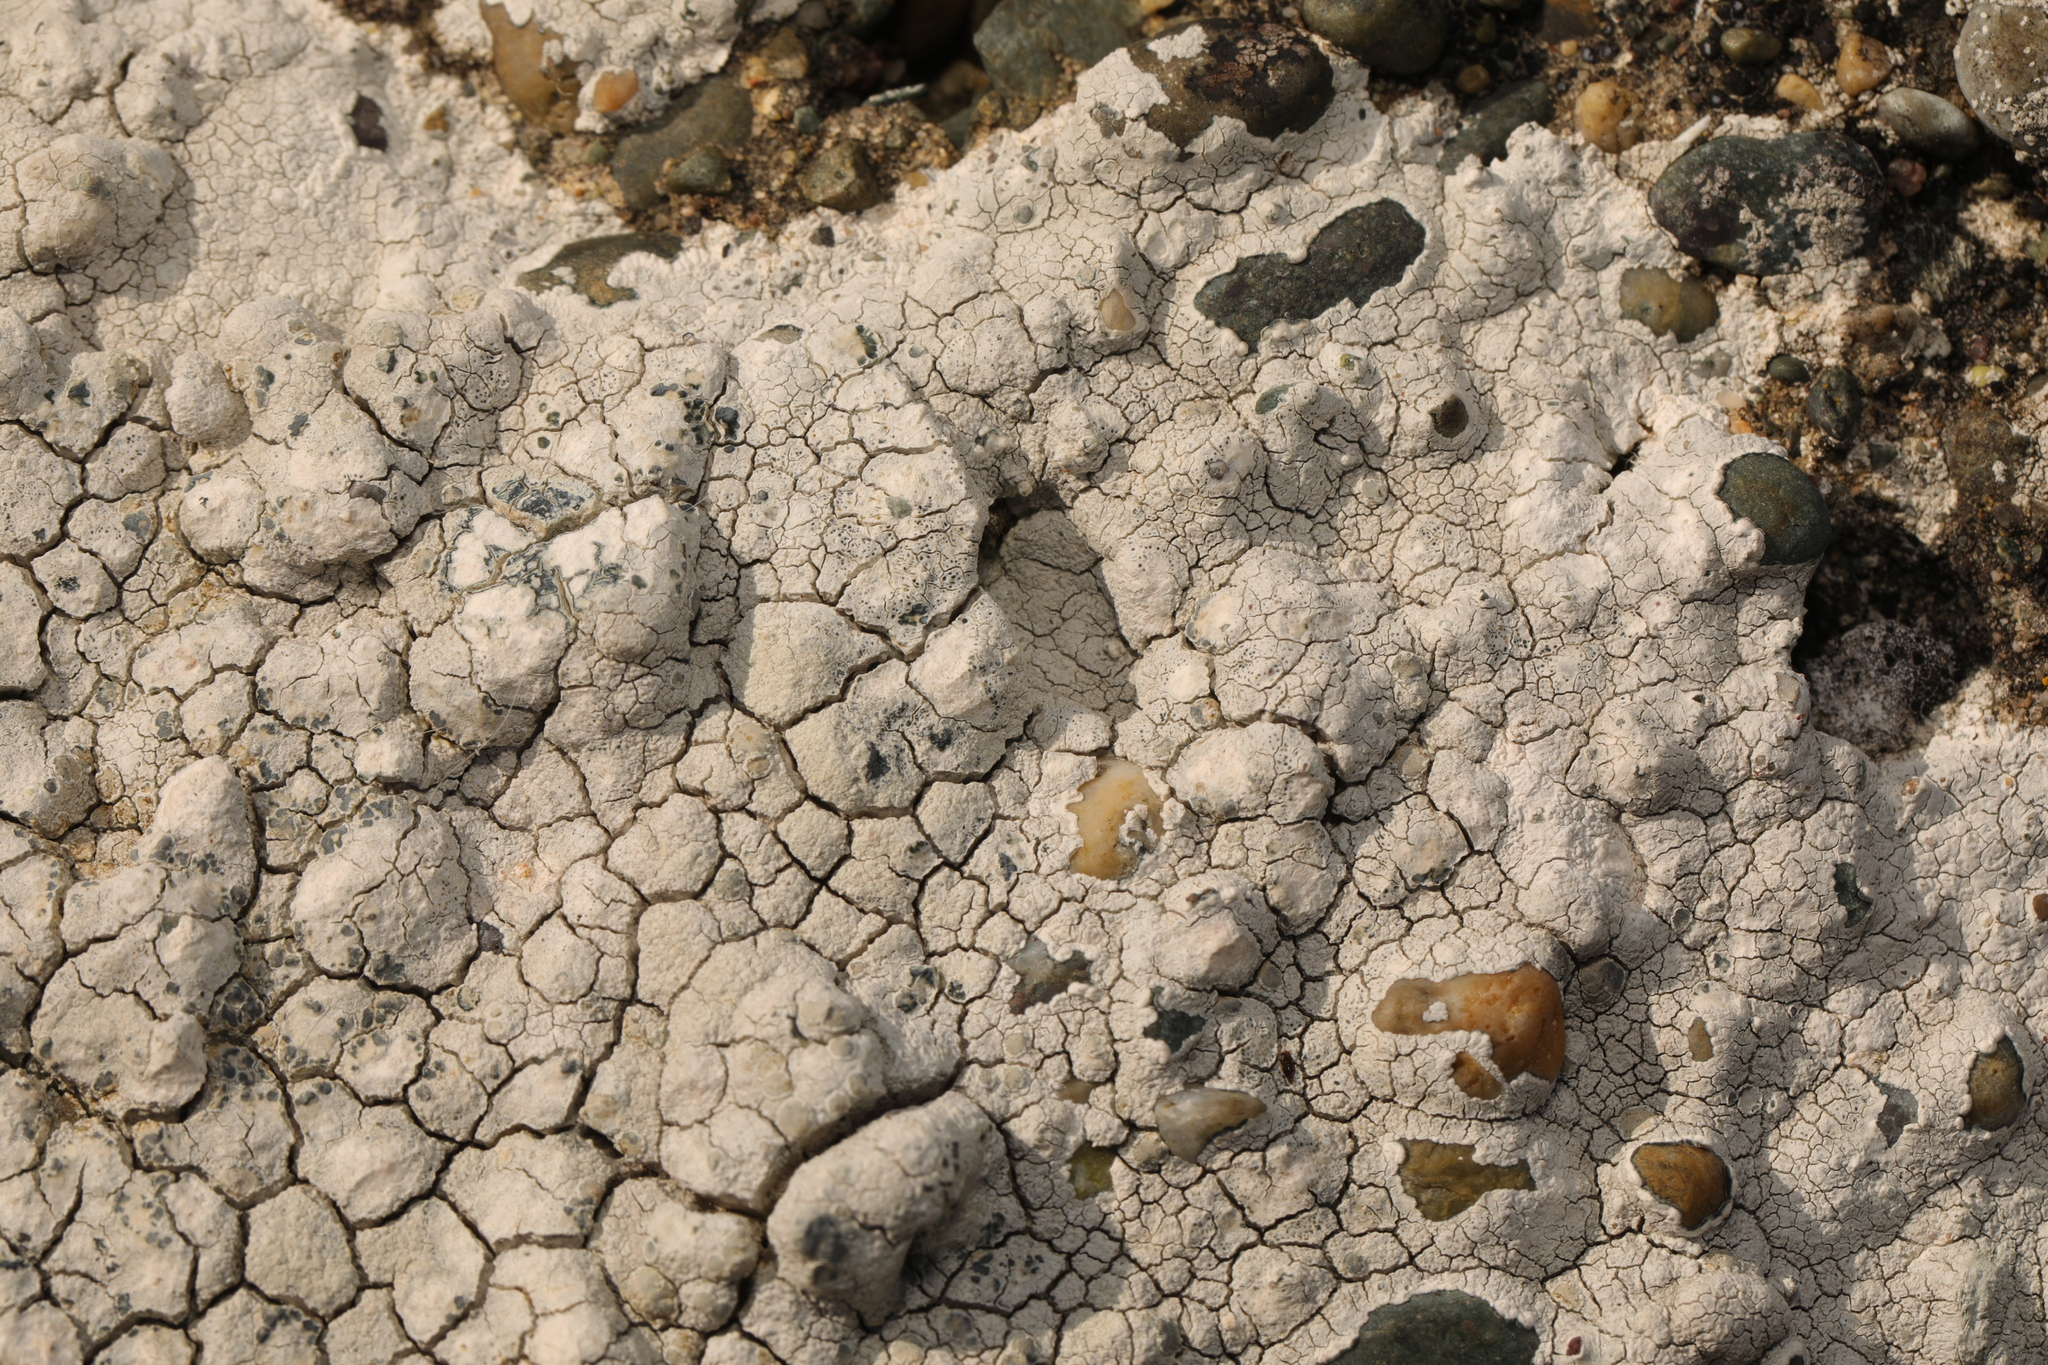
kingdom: Fungi
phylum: Ascomycota
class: Lecanoromycetes
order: Lecanorales
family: Lecanoraceae
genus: Glaucomaria
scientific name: Glaucomaria rupicola
